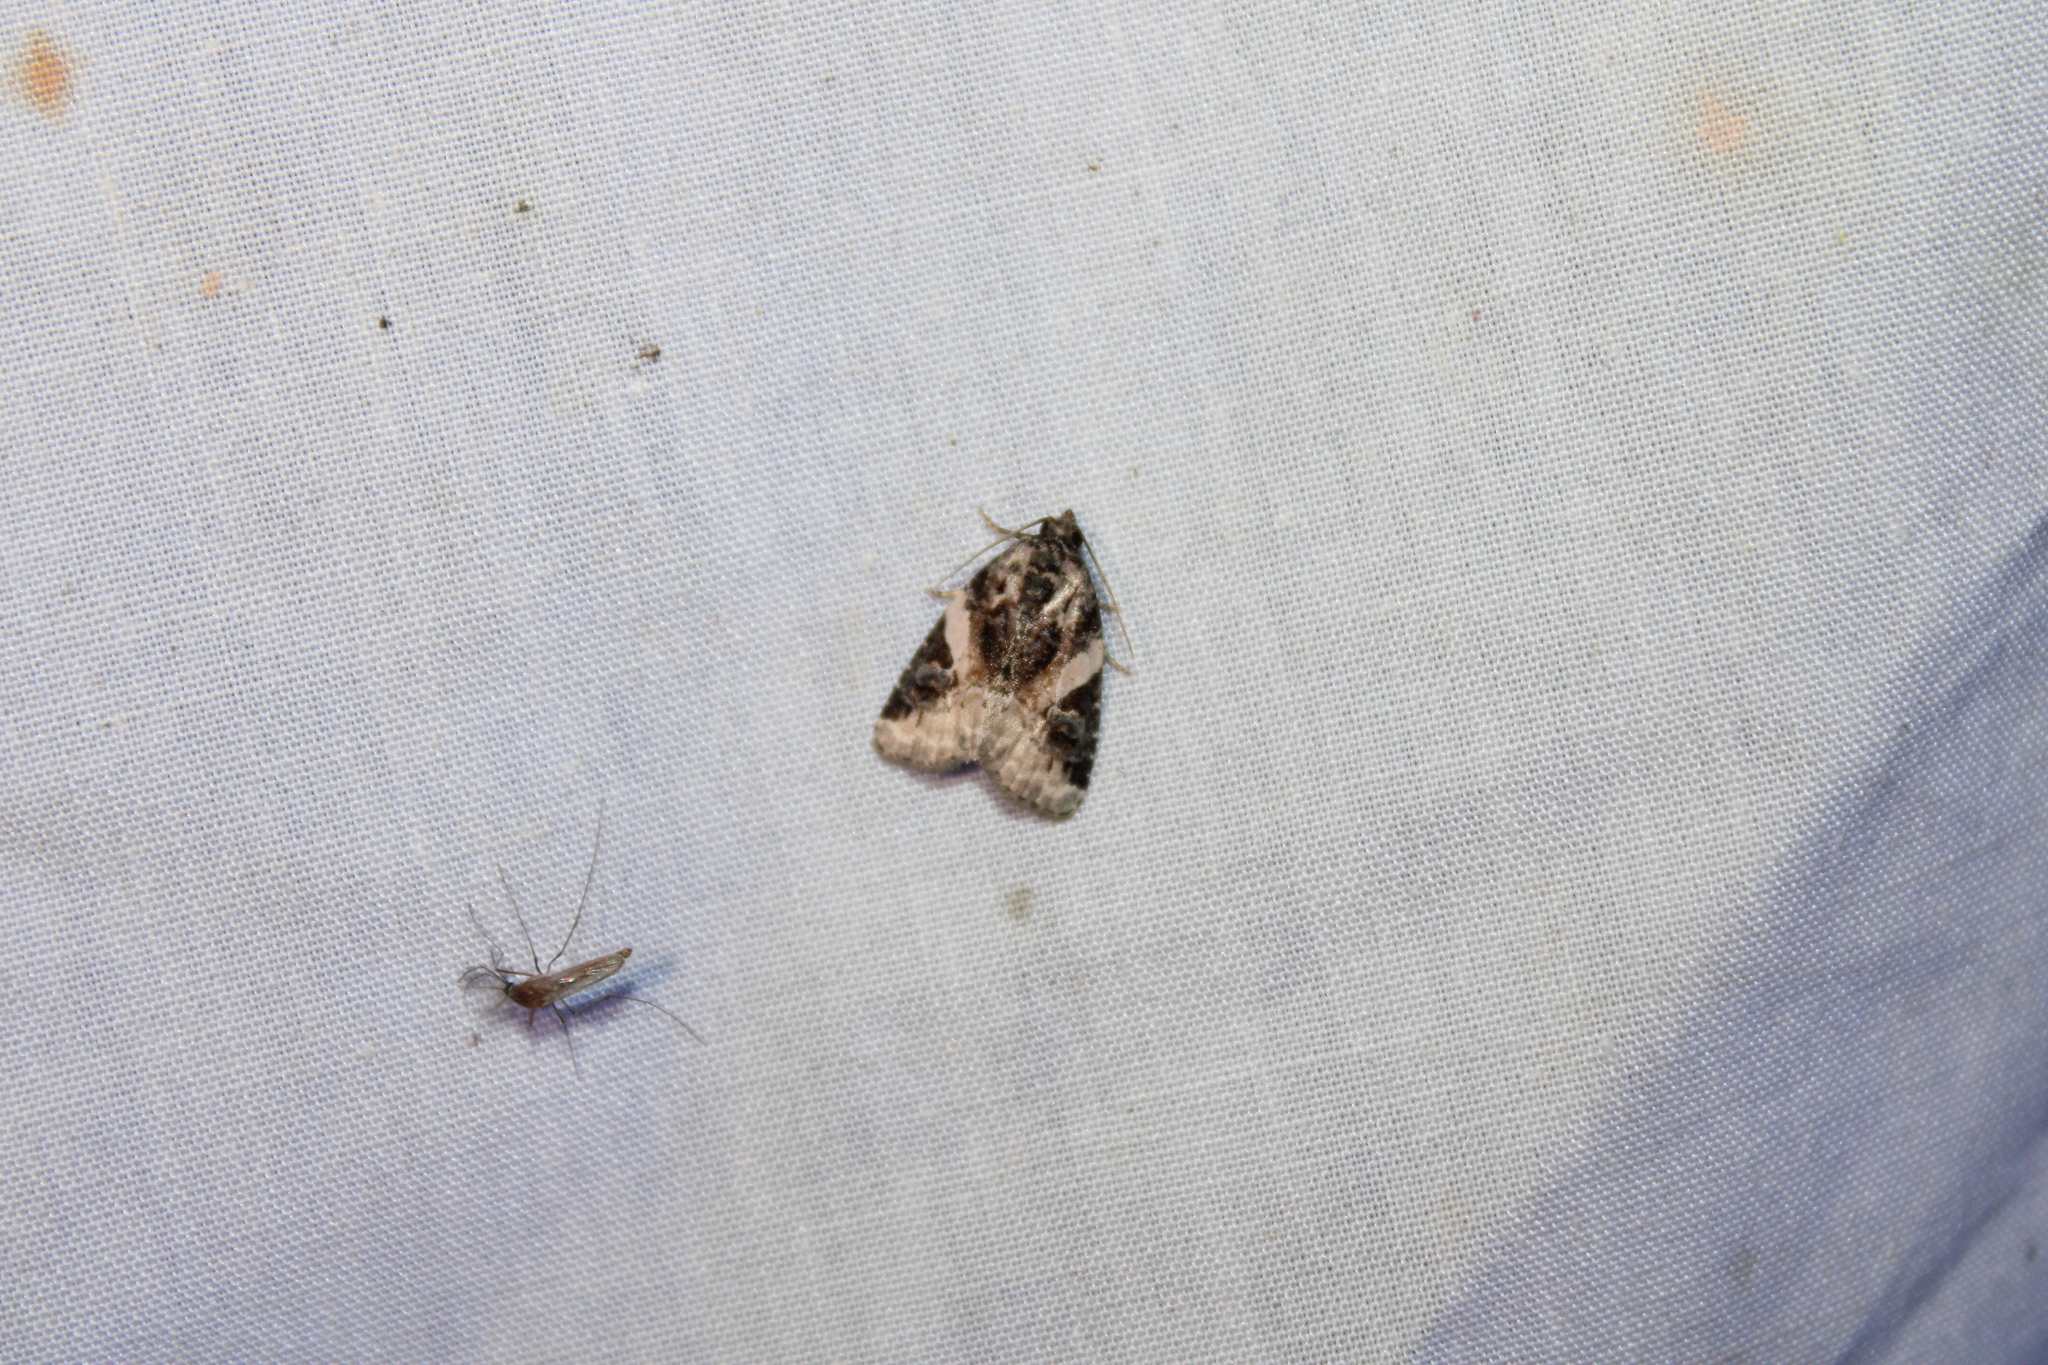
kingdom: Animalia
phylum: Arthropoda
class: Insecta
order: Lepidoptera
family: Noctuidae
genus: Pseudeustrotia
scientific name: Pseudeustrotia carneola
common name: Pink-barred lithacodia moth
